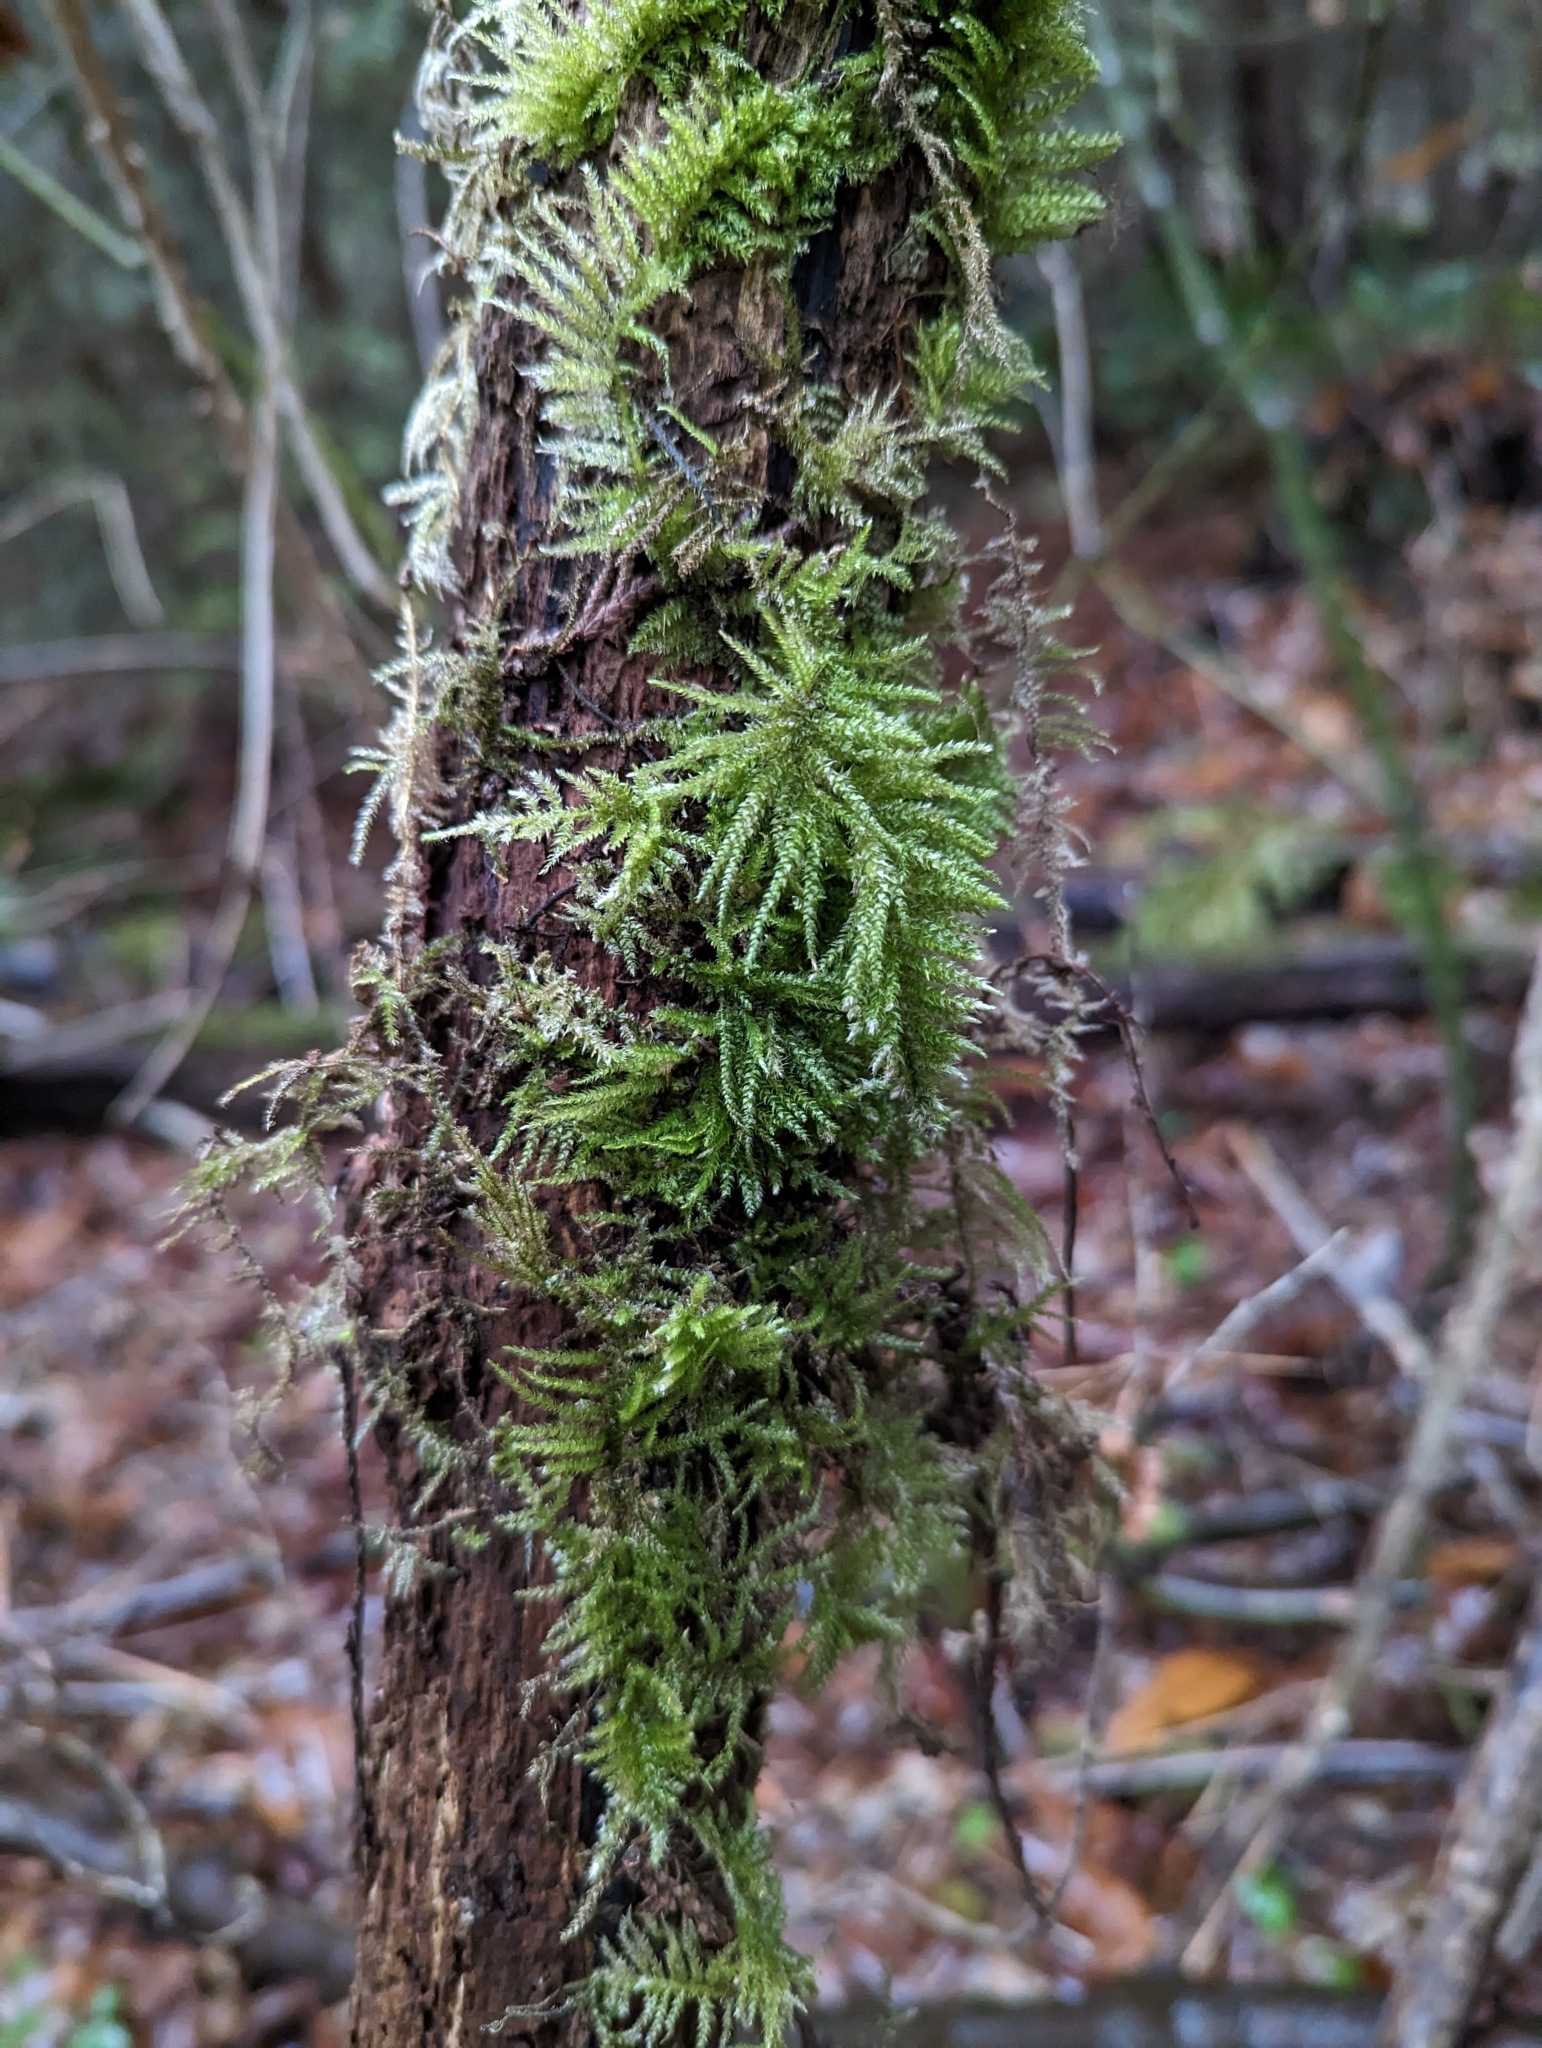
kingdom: Plantae
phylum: Bryophyta
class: Bryopsida
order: Hypnales
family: Brachytheciaceae
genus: Kindbergia
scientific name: Kindbergia oregana
